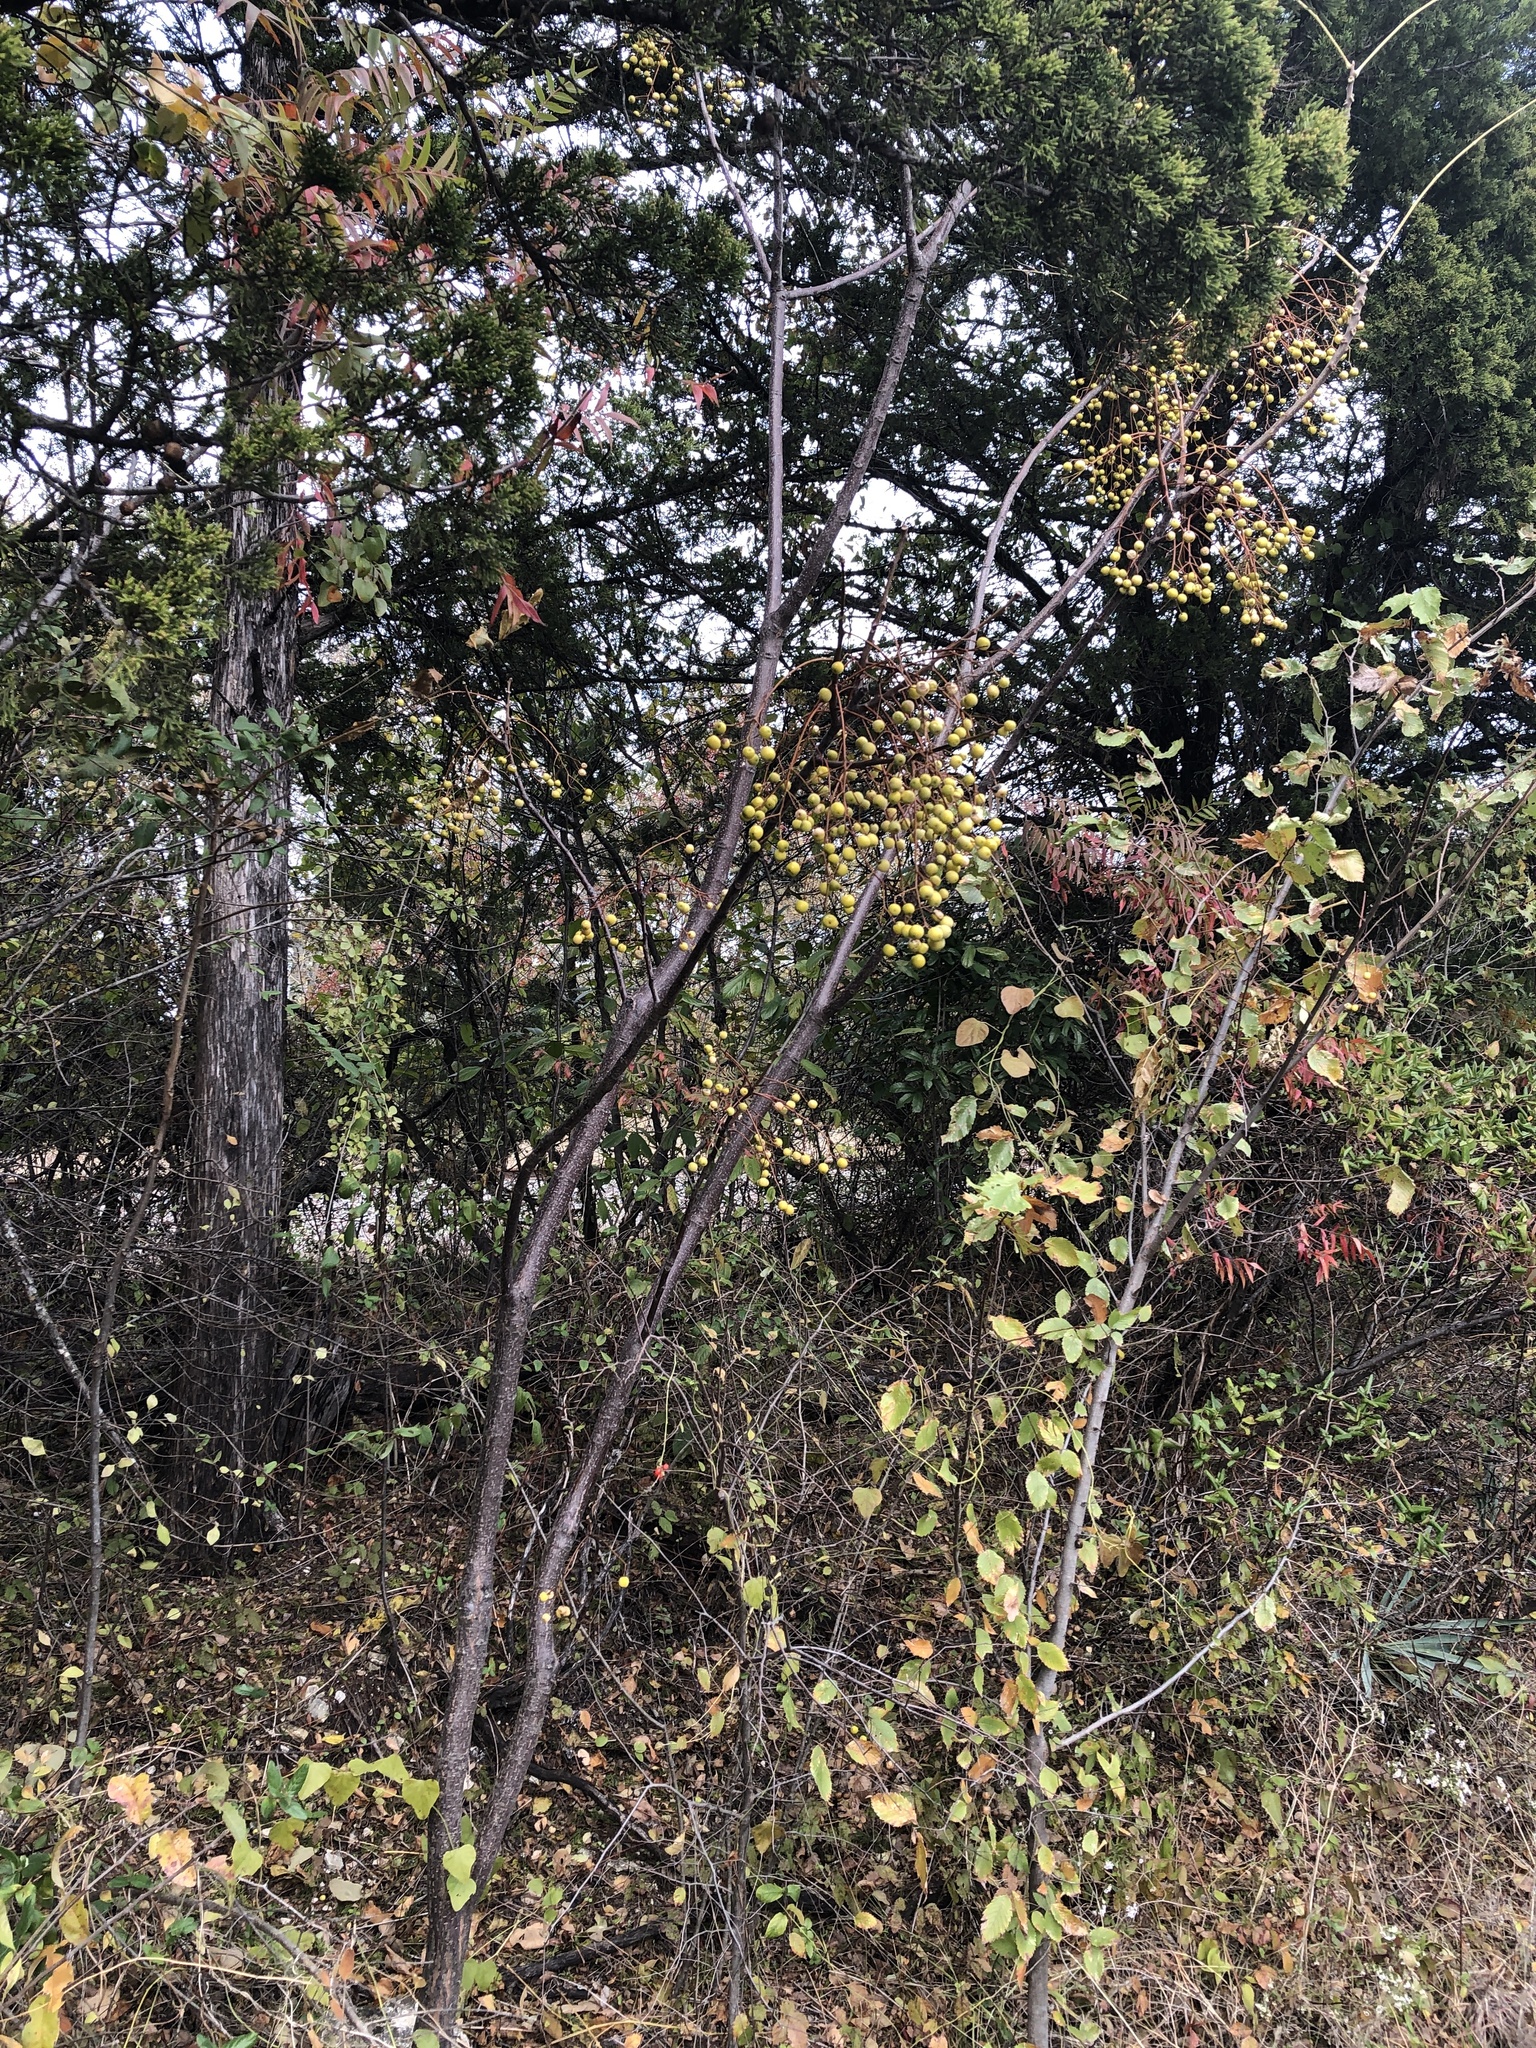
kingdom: Plantae
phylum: Tracheophyta
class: Magnoliopsida
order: Sapindales
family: Meliaceae
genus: Melia
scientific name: Melia azedarach
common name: Chinaberrytree
